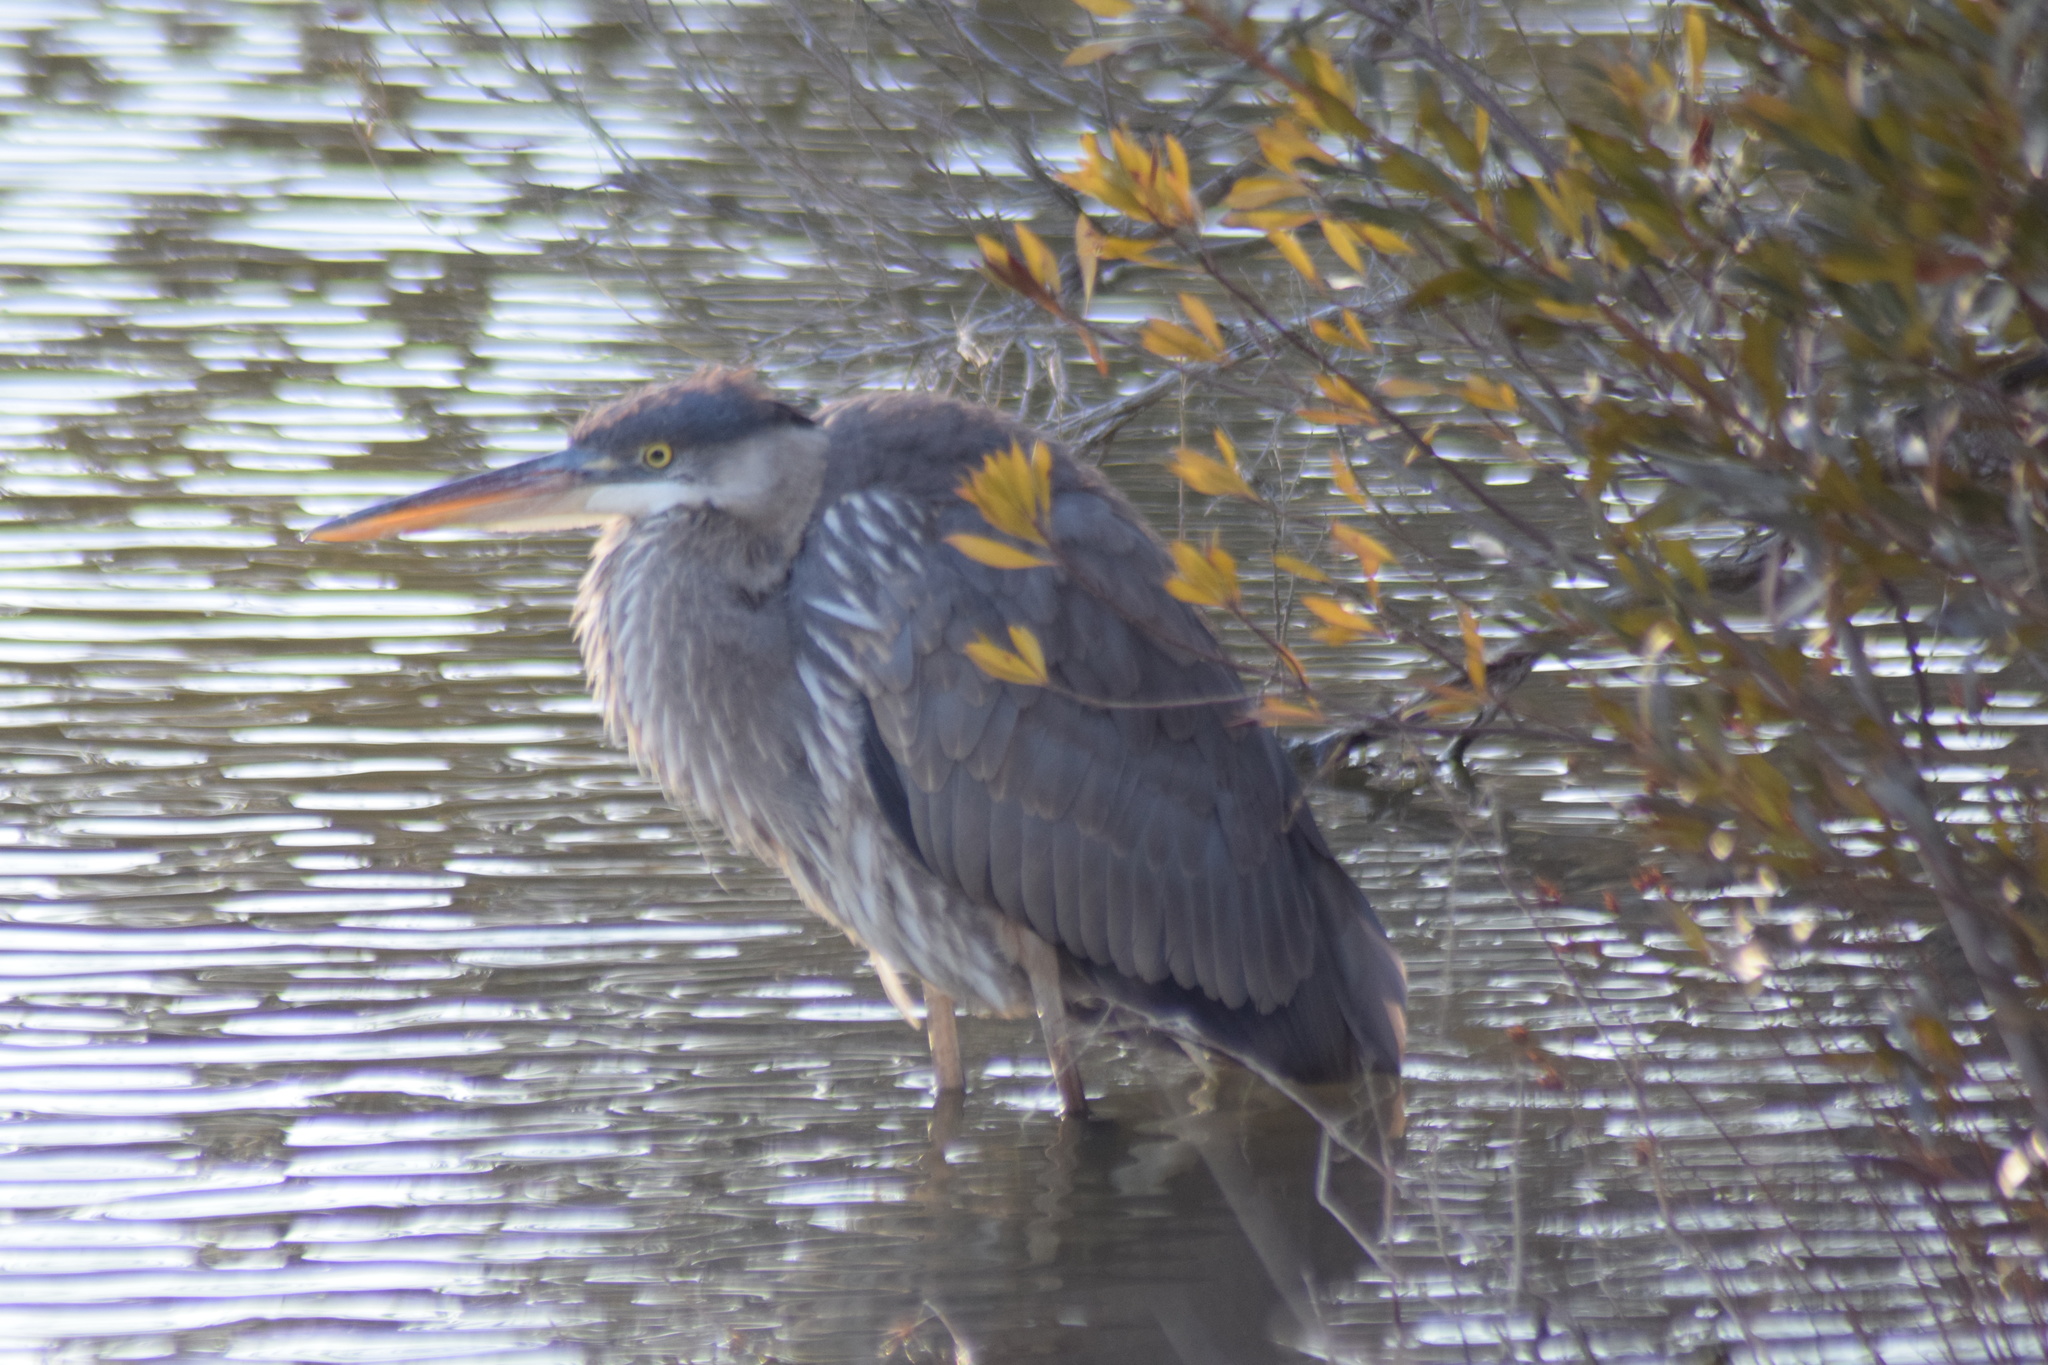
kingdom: Animalia
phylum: Chordata
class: Aves
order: Pelecaniformes
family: Ardeidae
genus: Ardea
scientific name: Ardea herodias
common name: Great blue heron
